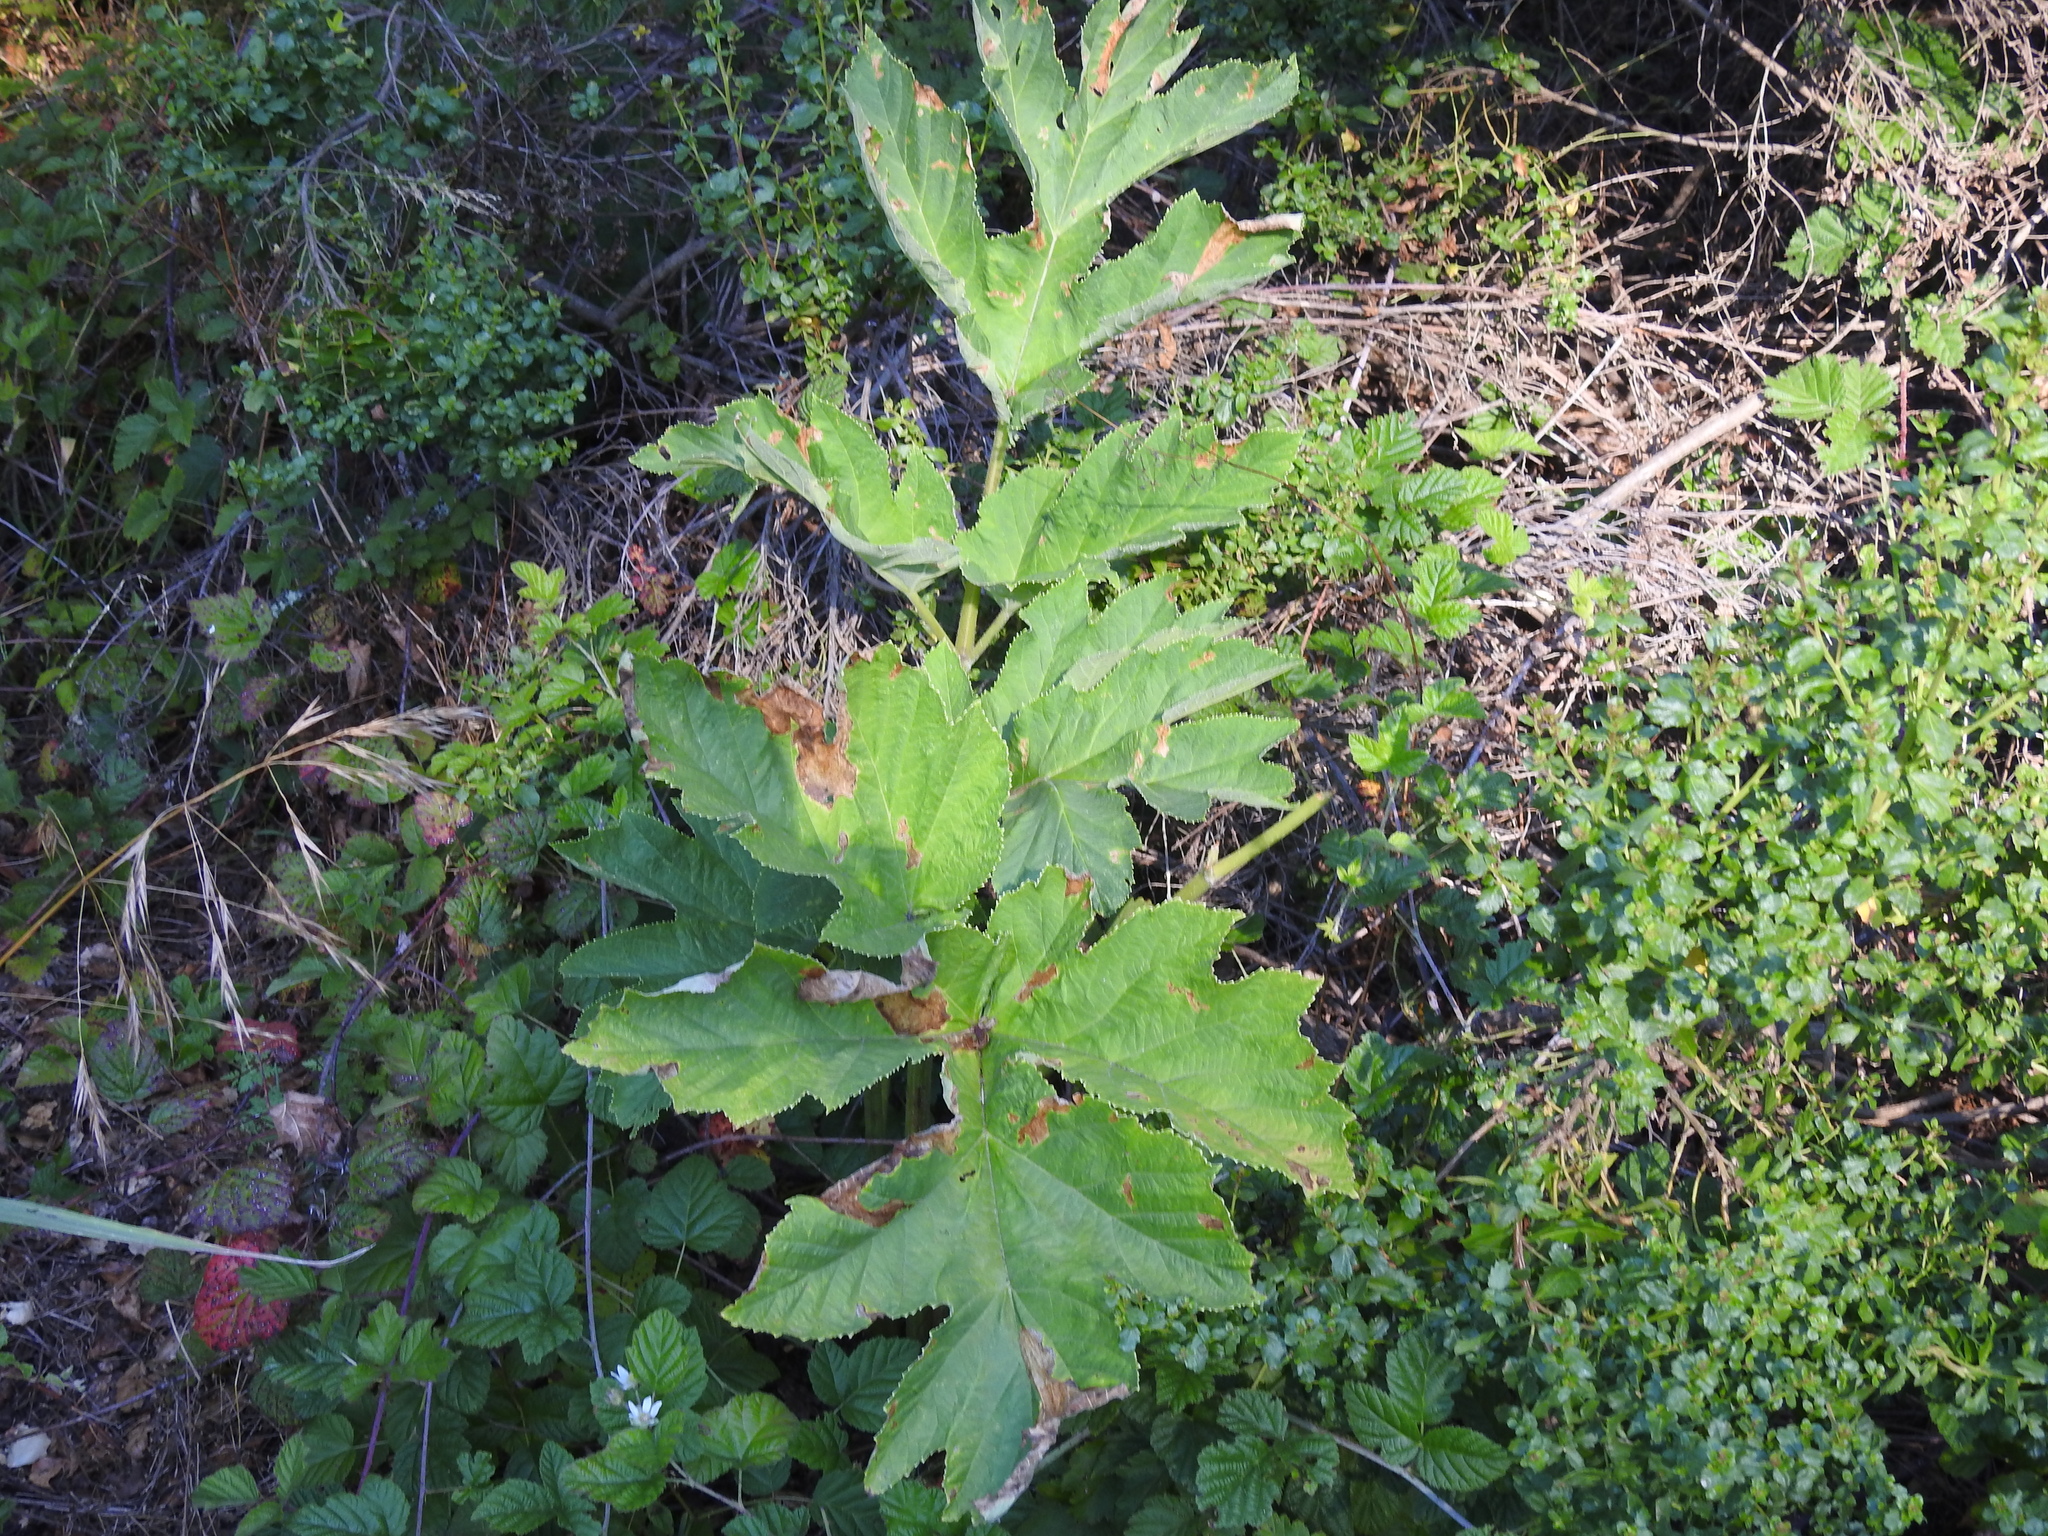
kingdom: Plantae
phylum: Tracheophyta
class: Magnoliopsida
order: Apiales
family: Apiaceae
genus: Heracleum
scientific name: Heracleum maximum
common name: American cow parsnip
